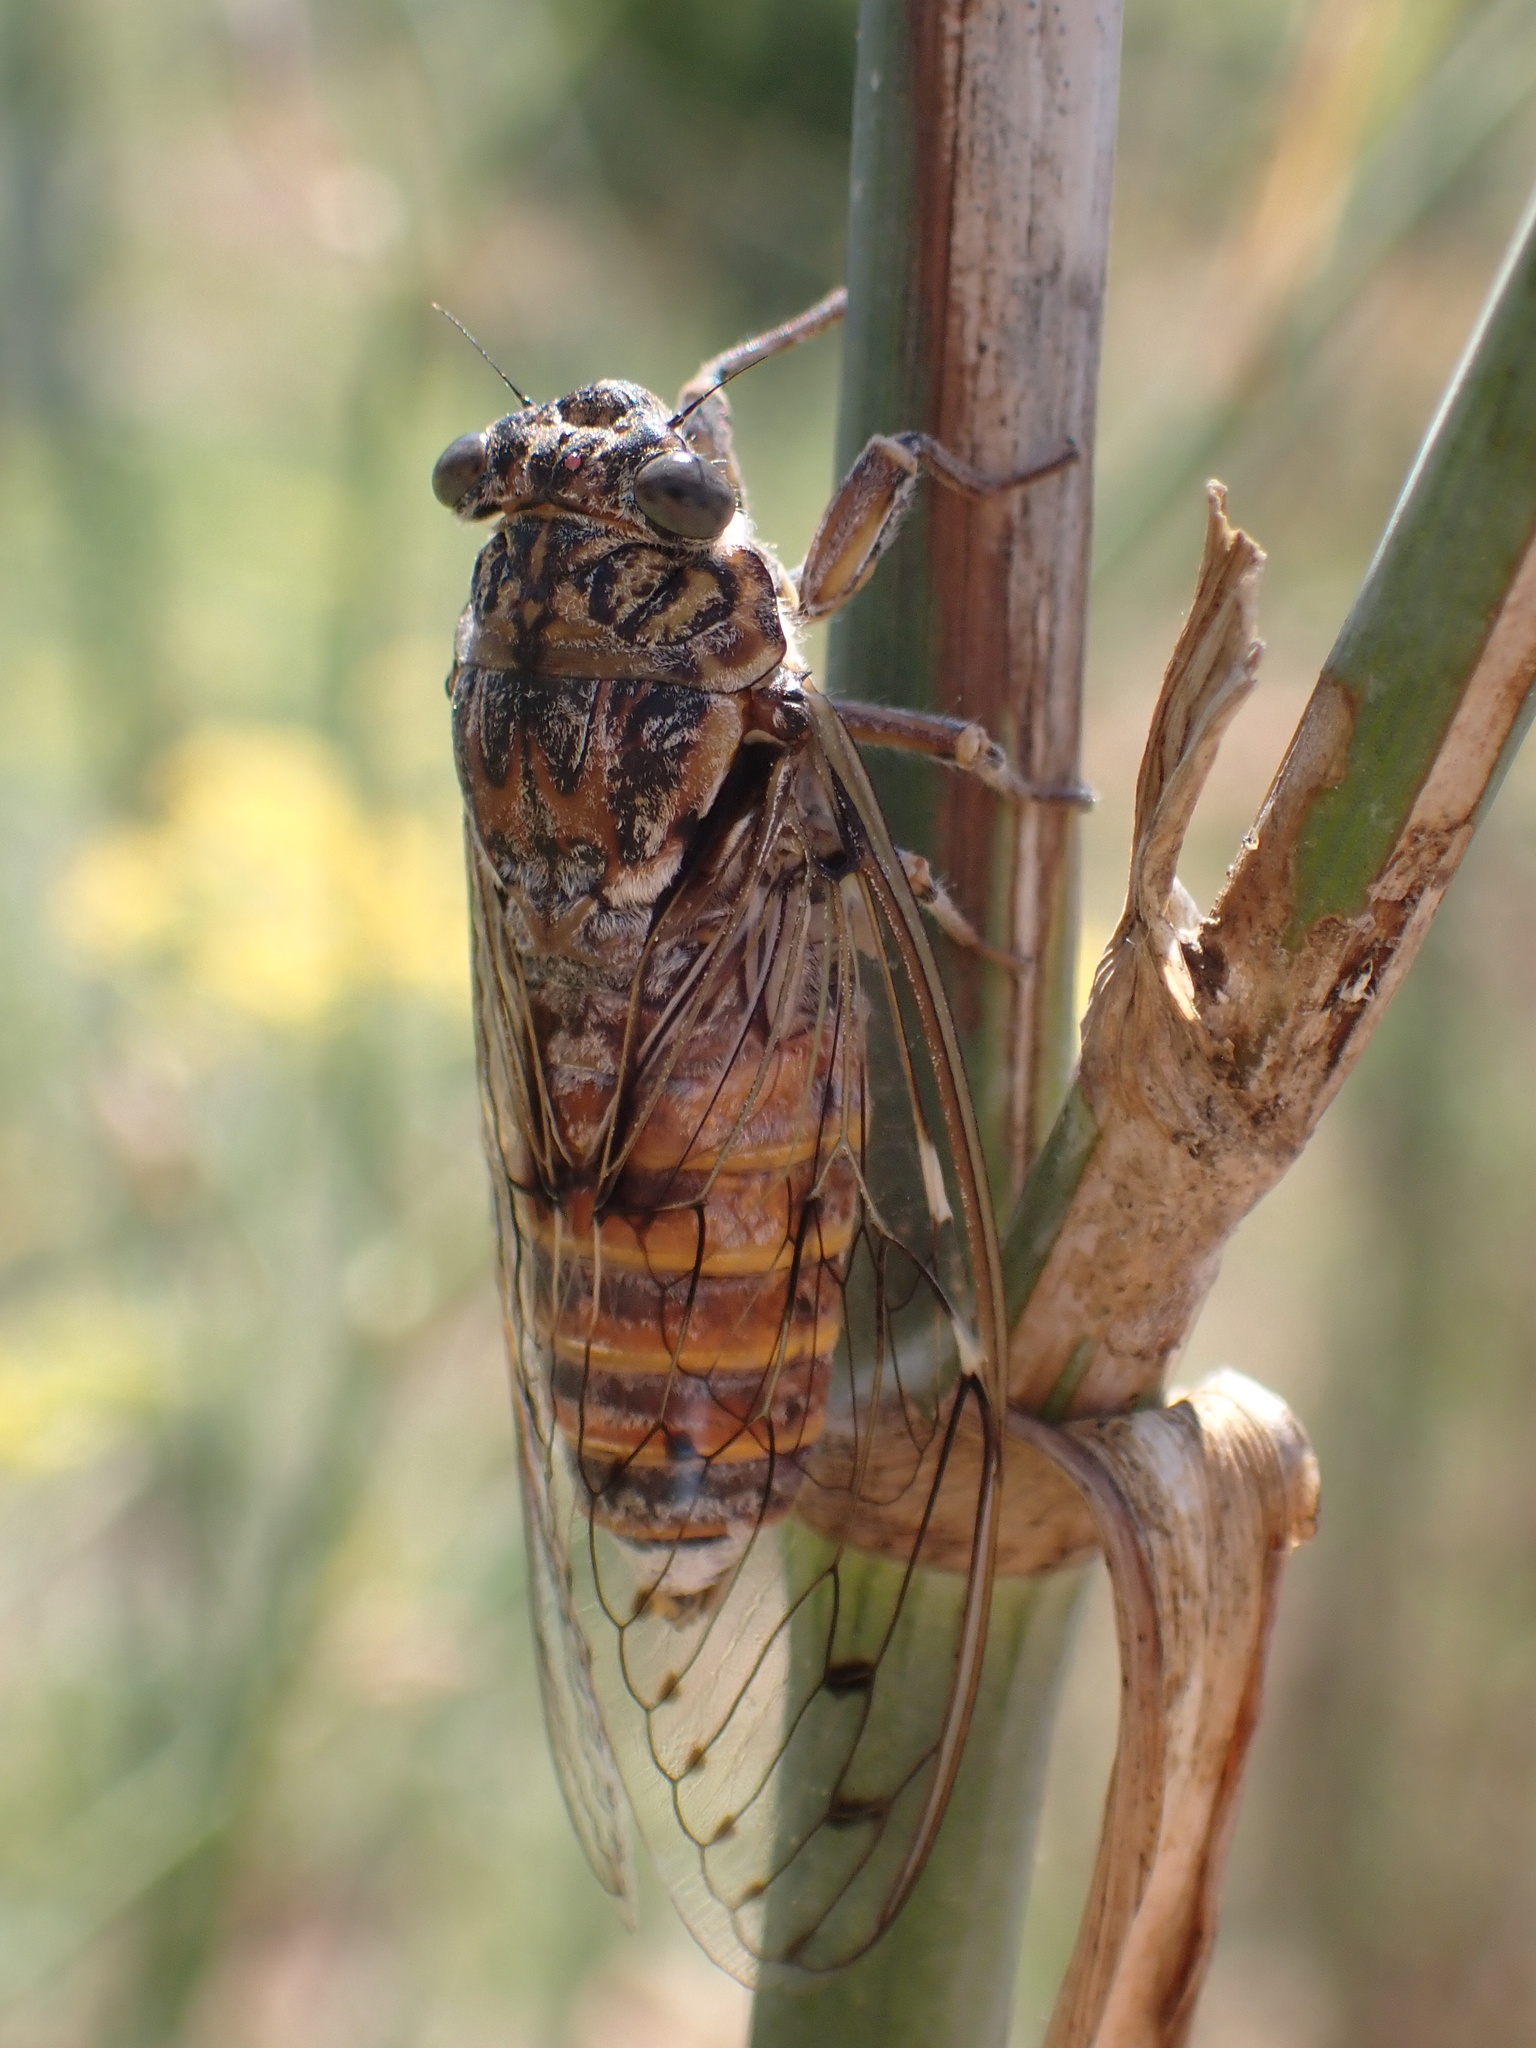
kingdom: Animalia
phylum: Arthropoda
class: Insecta
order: Hemiptera
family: Cicadidae
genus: Cicada
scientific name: Cicada orni
